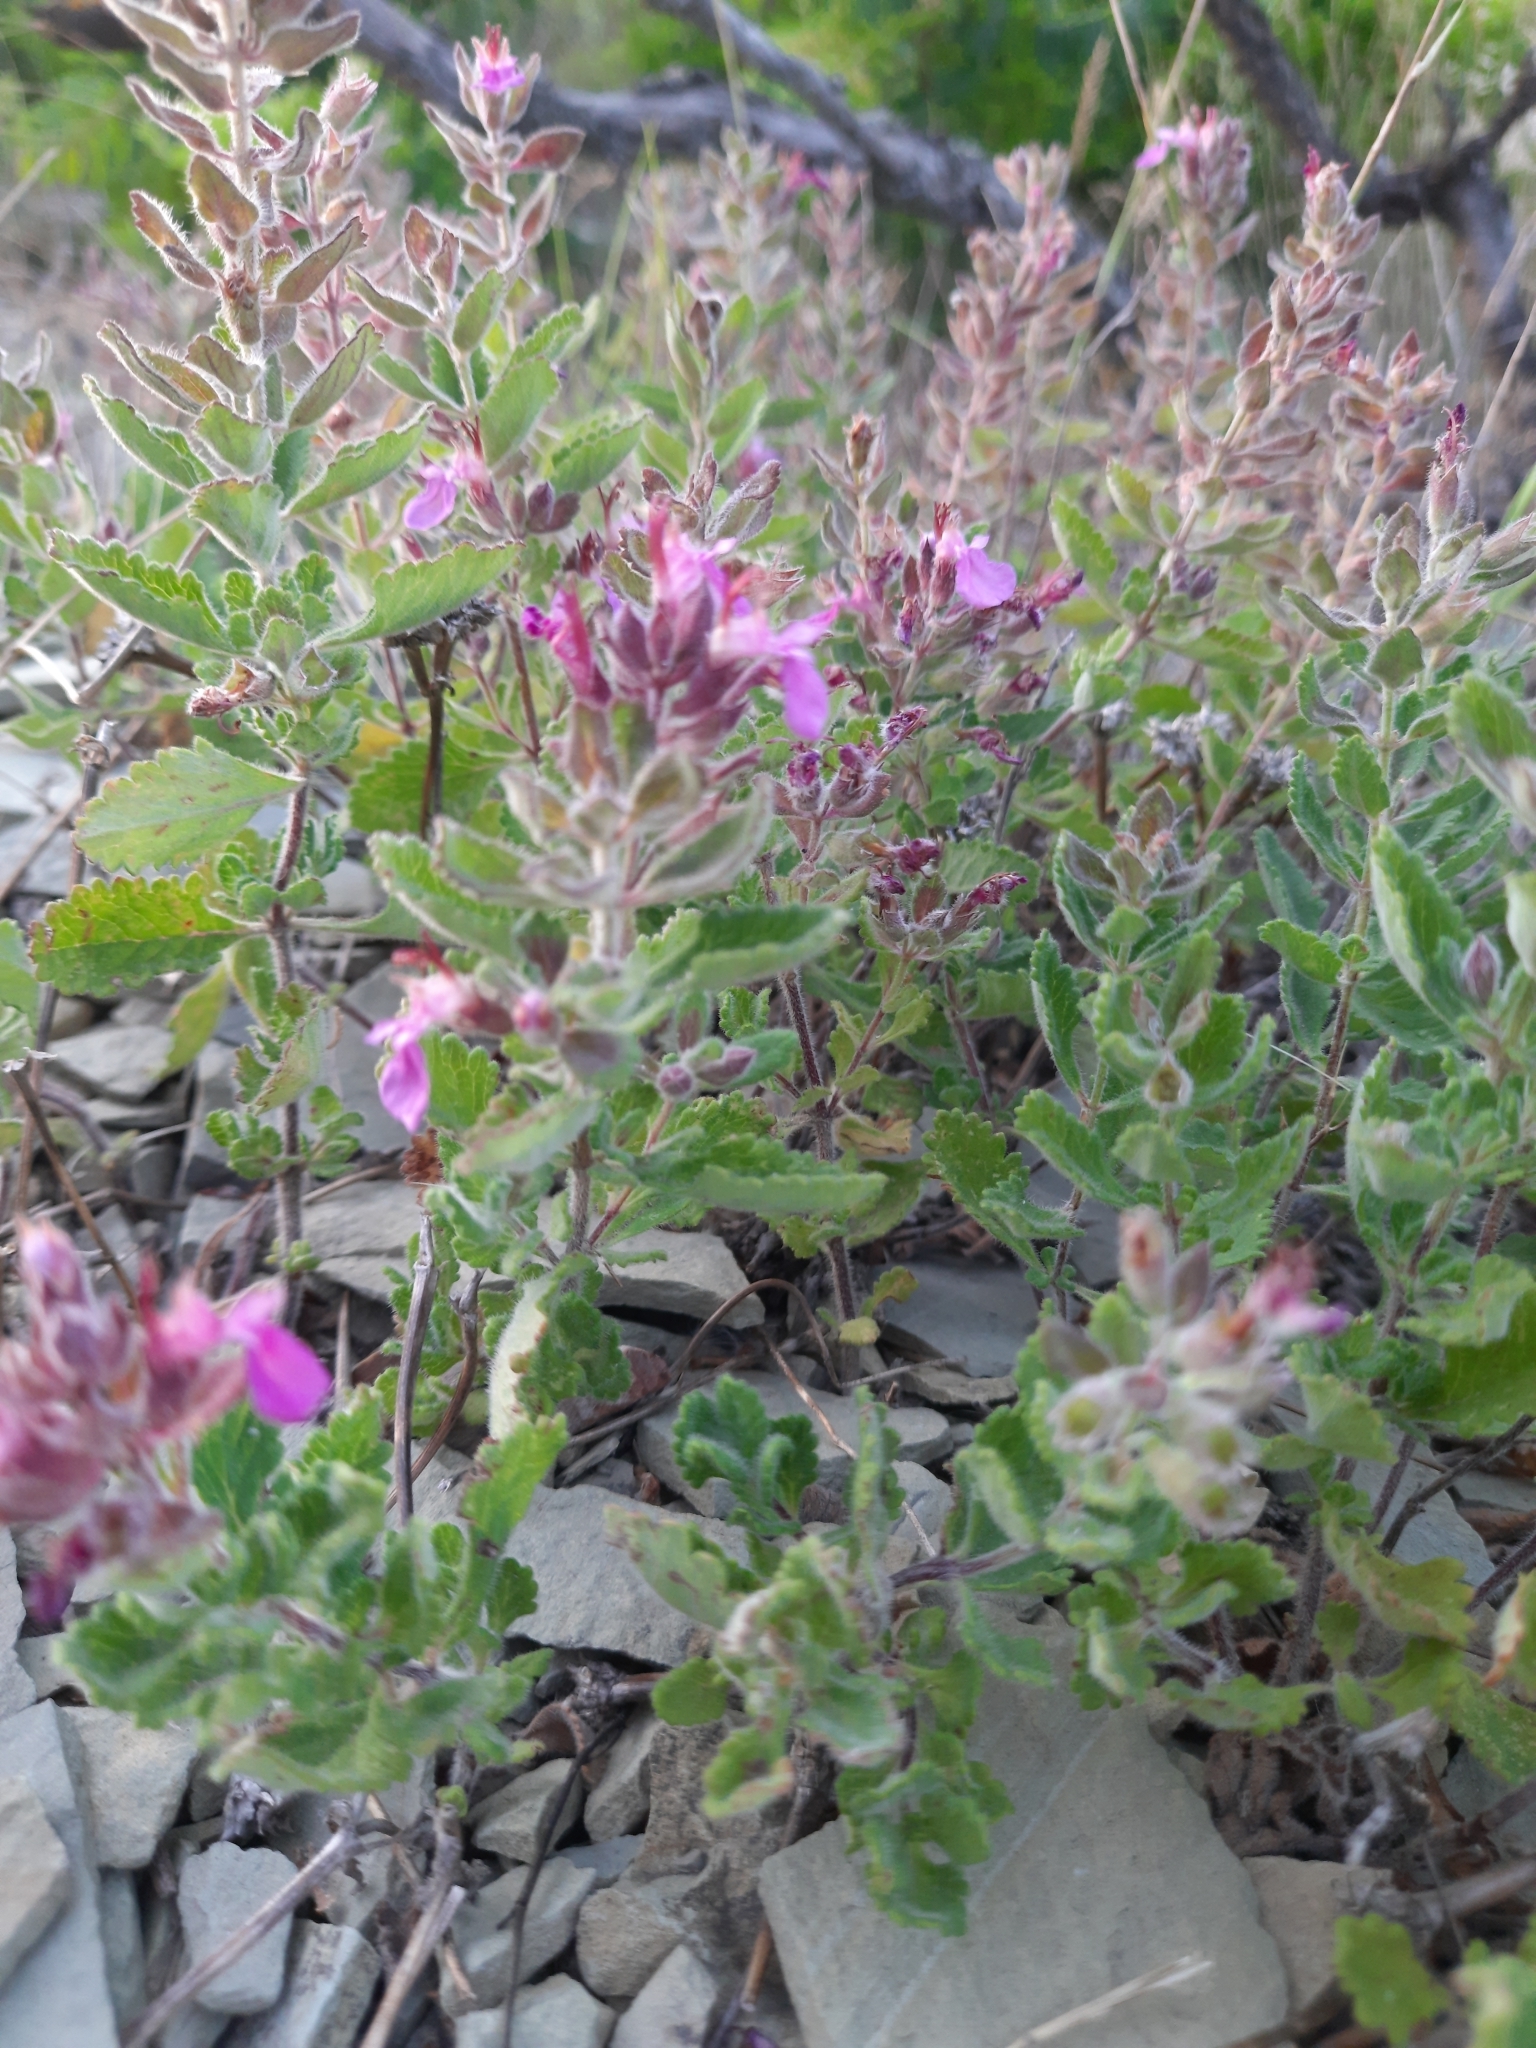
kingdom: Plantae
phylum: Tracheophyta
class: Magnoliopsida
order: Lamiales
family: Lamiaceae
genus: Teucrium
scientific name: Teucrium chamaedrys
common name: Wall germander
